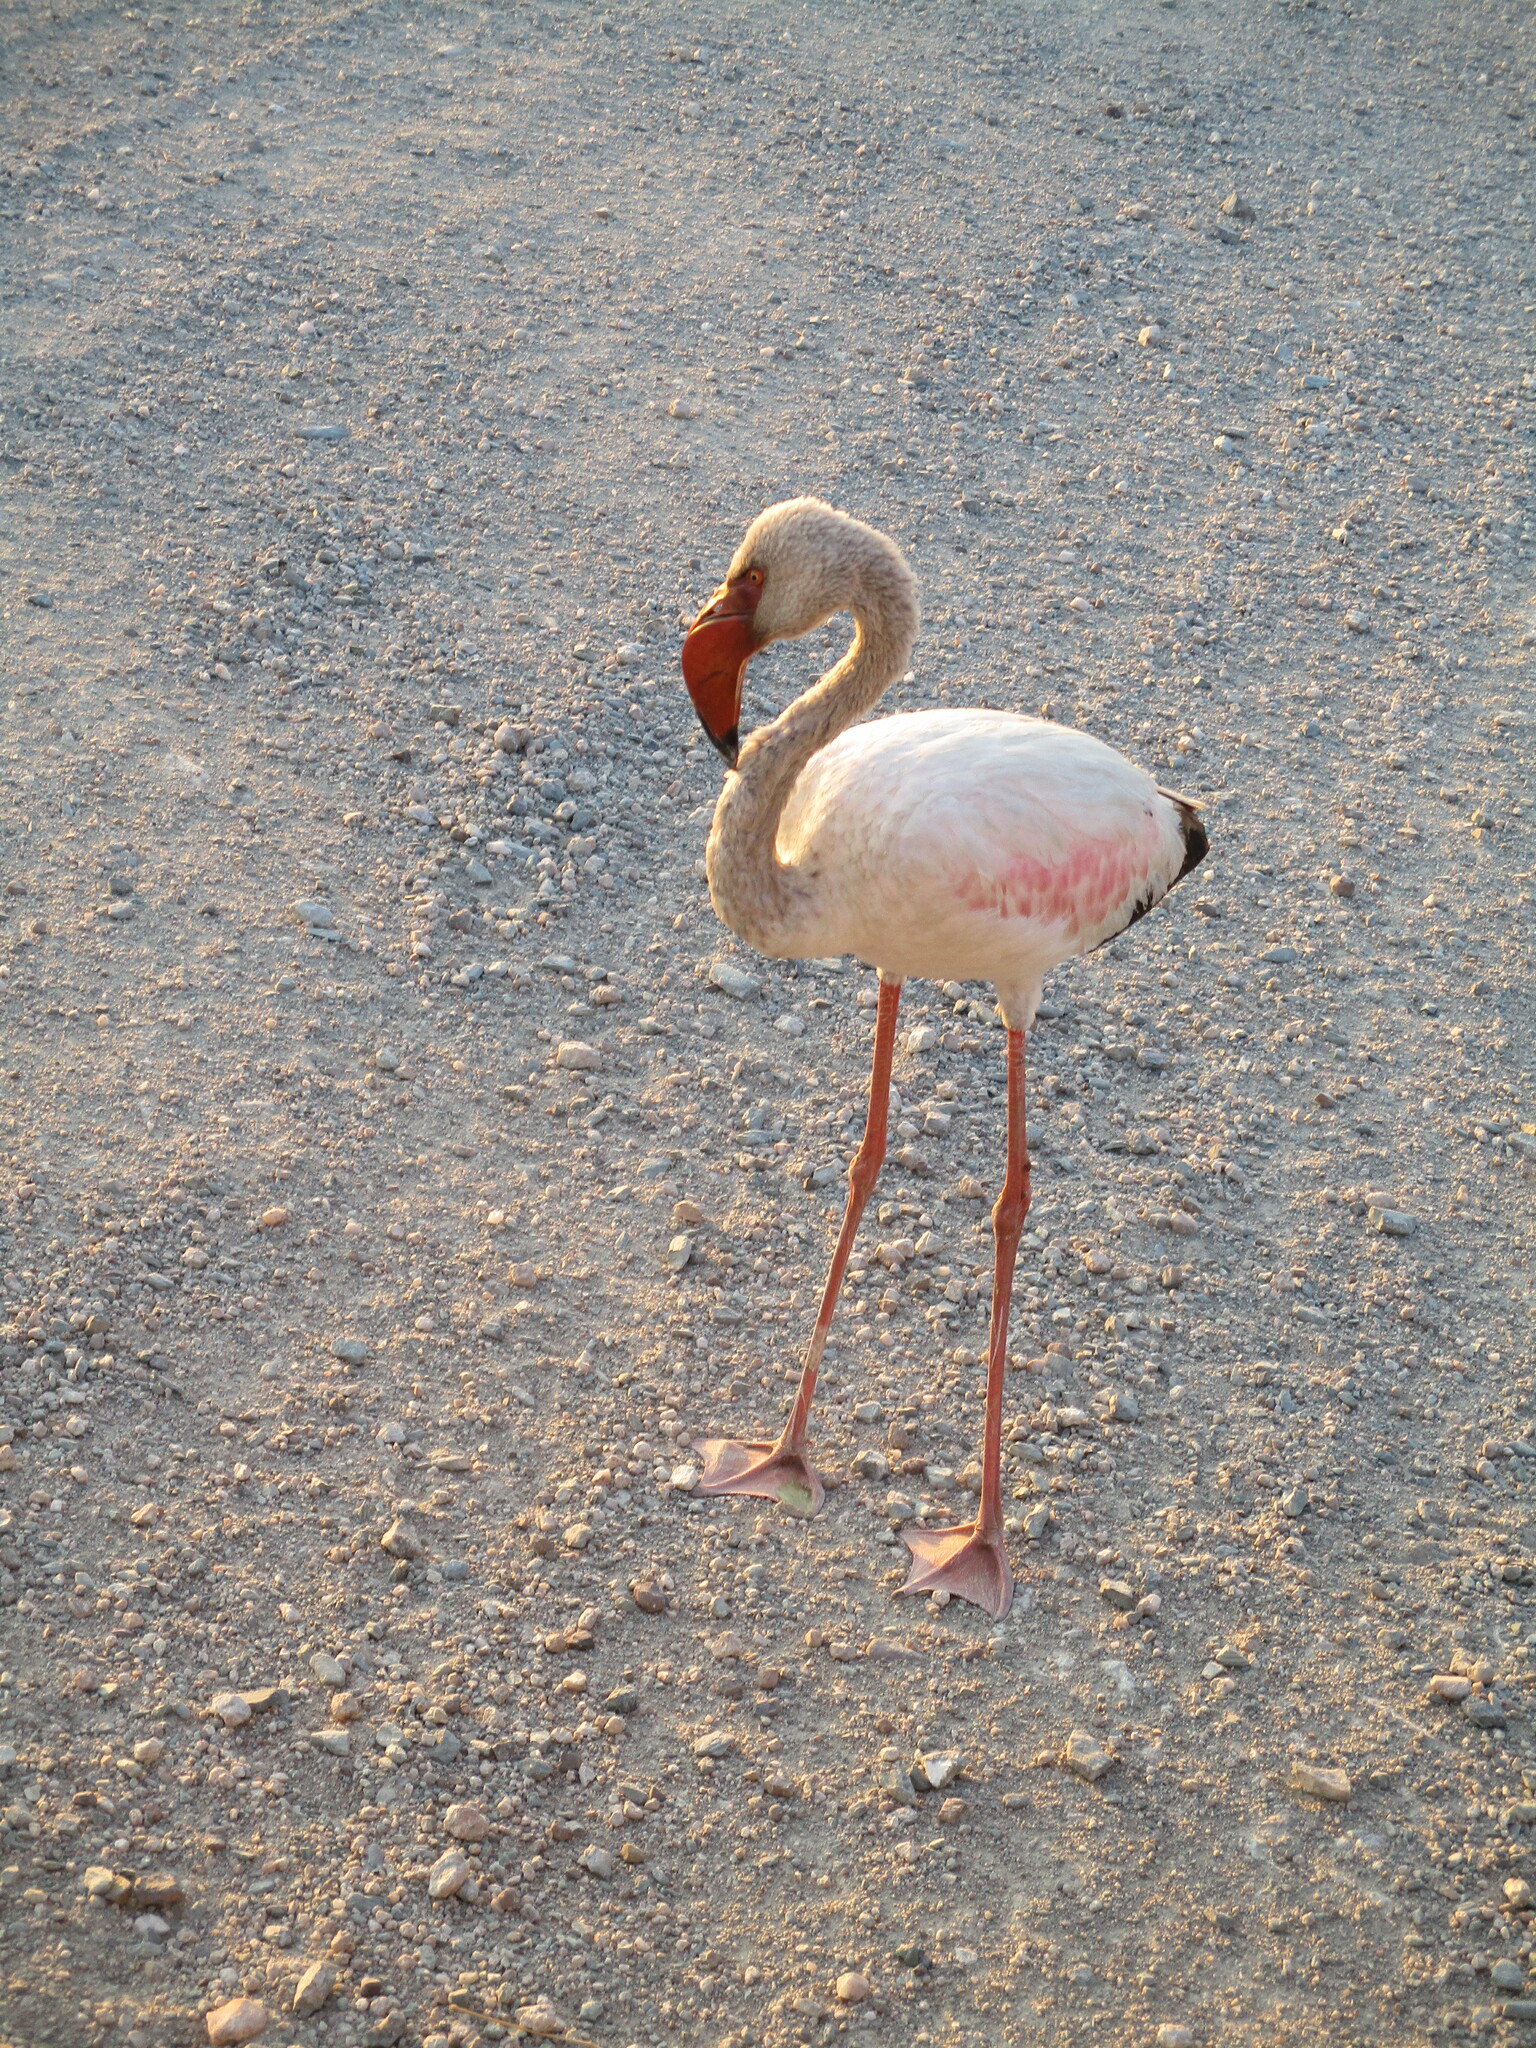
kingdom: Animalia
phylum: Chordata
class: Aves
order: Phoenicopteriformes
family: Phoenicopteridae
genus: Phoeniconaias
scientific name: Phoeniconaias minor
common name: Lesser flamingo
